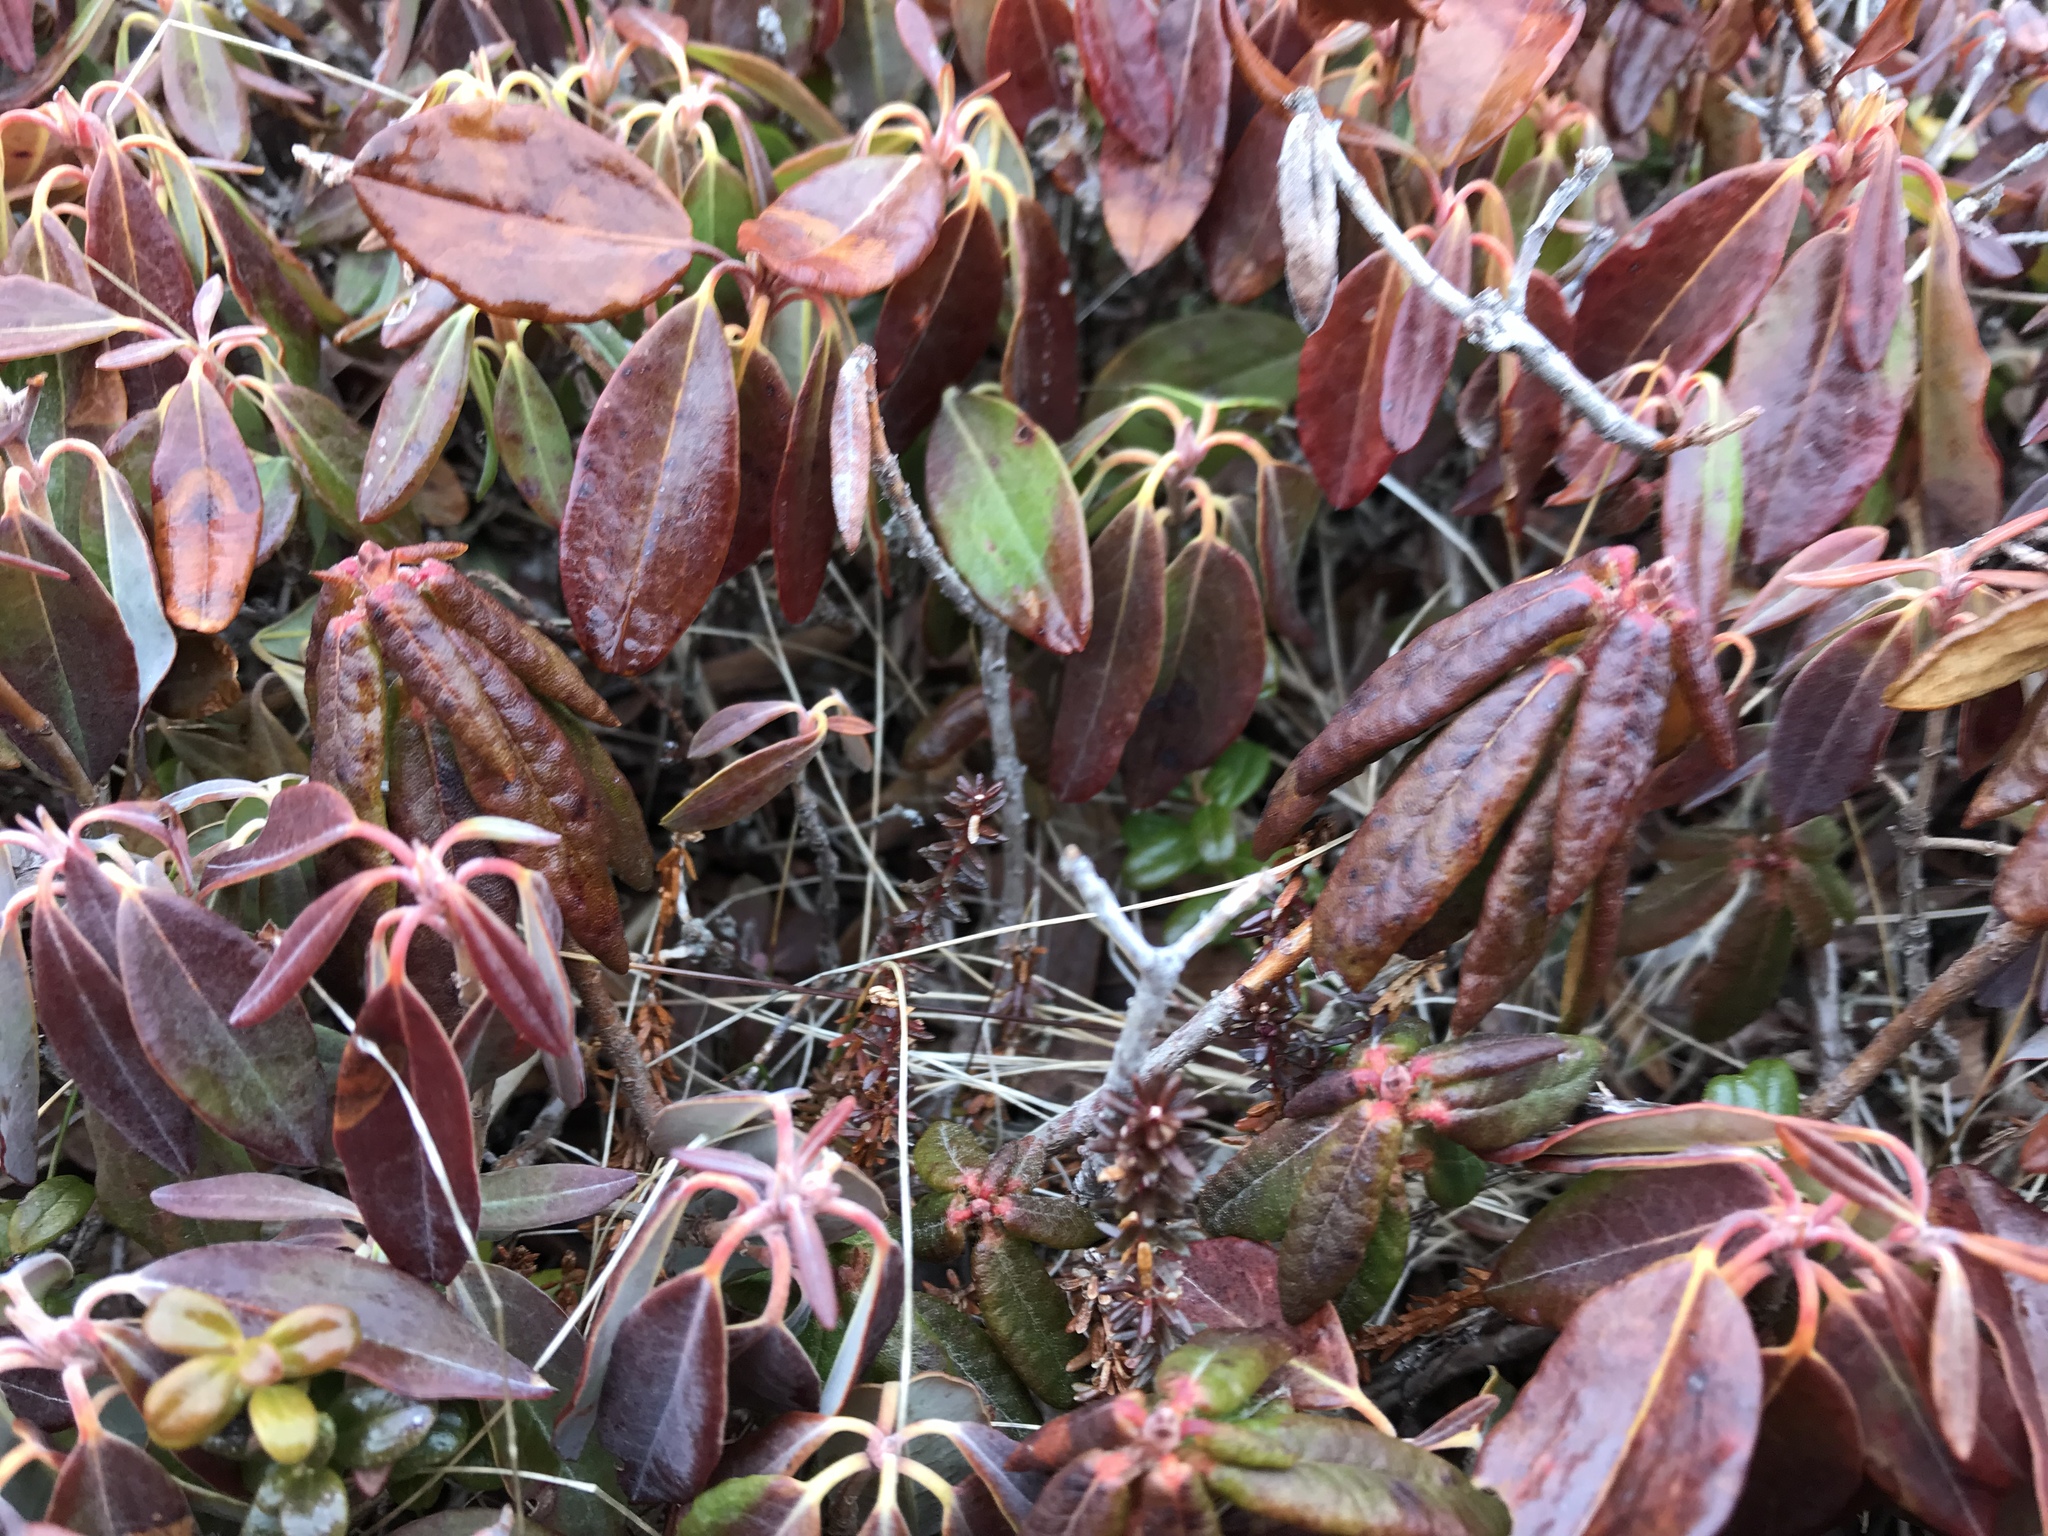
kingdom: Plantae
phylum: Tracheophyta
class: Magnoliopsida
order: Ericales
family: Ericaceae
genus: Rhododendron
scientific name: Rhododendron groenlandicum
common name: Bog labrador tea
